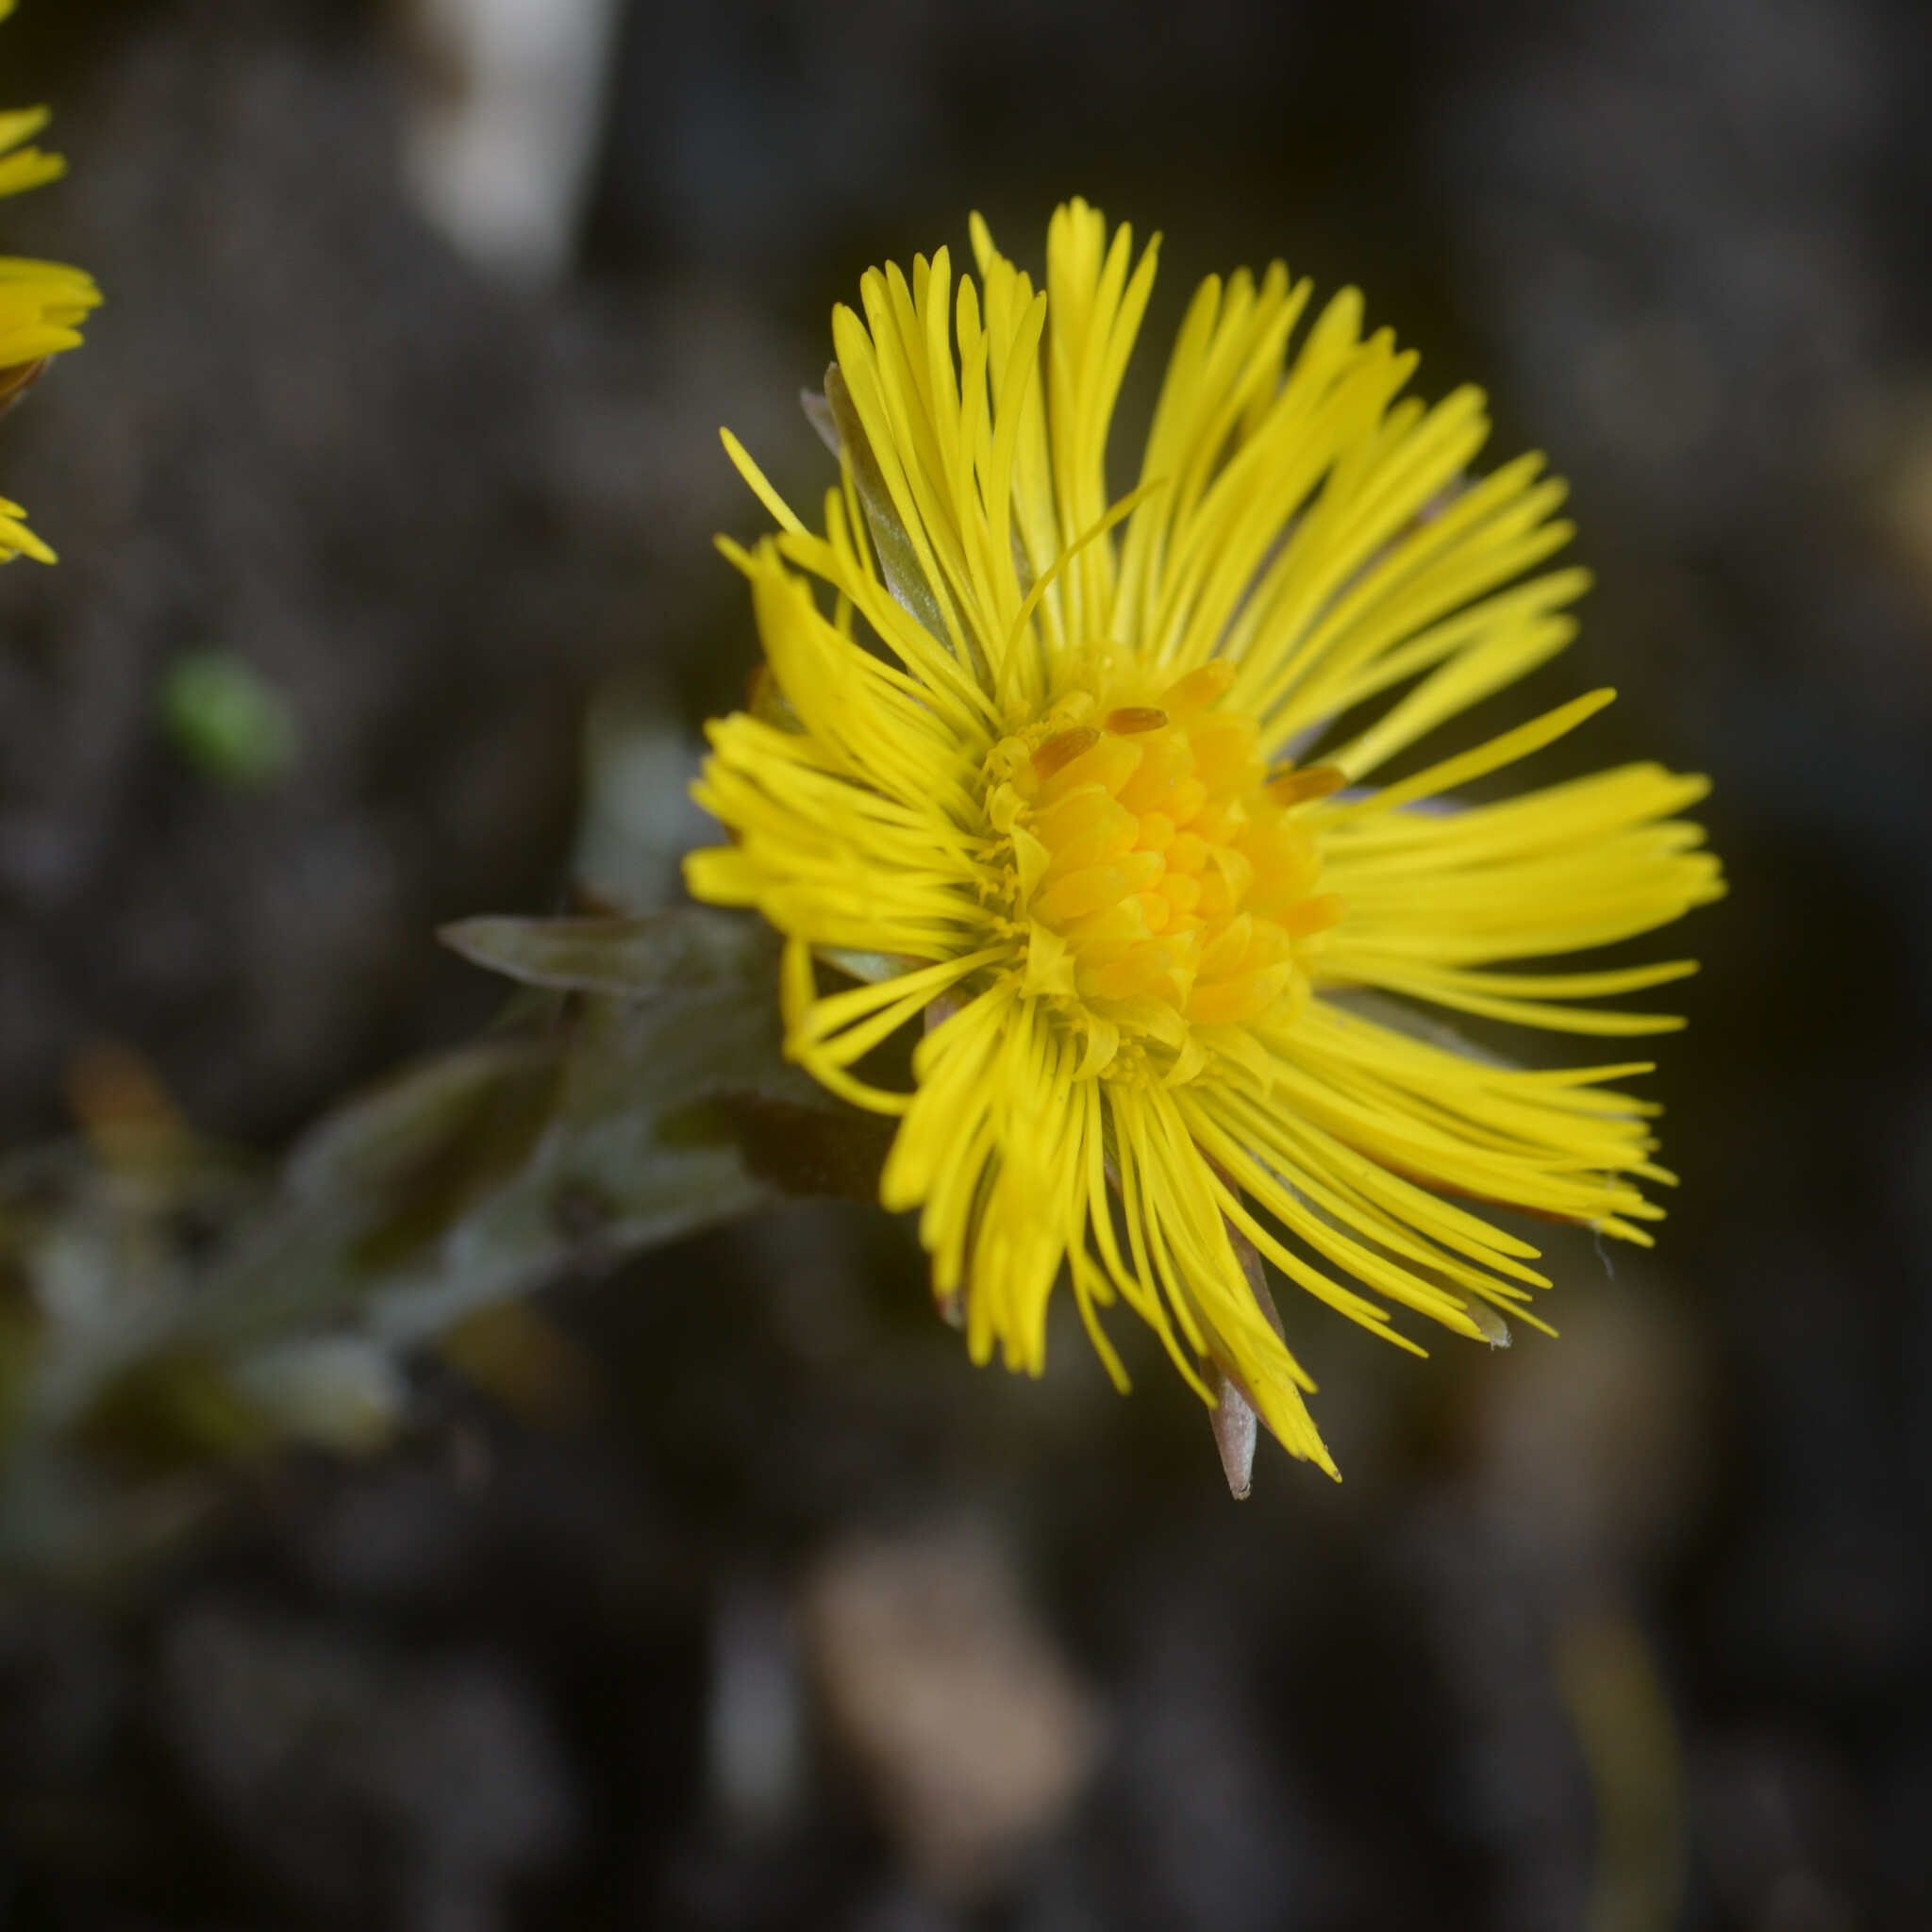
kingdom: Plantae
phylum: Tracheophyta
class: Magnoliopsida
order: Asterales
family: Asteraceae
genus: Tussilago
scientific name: Tussilago farfara
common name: Coltsfoot
